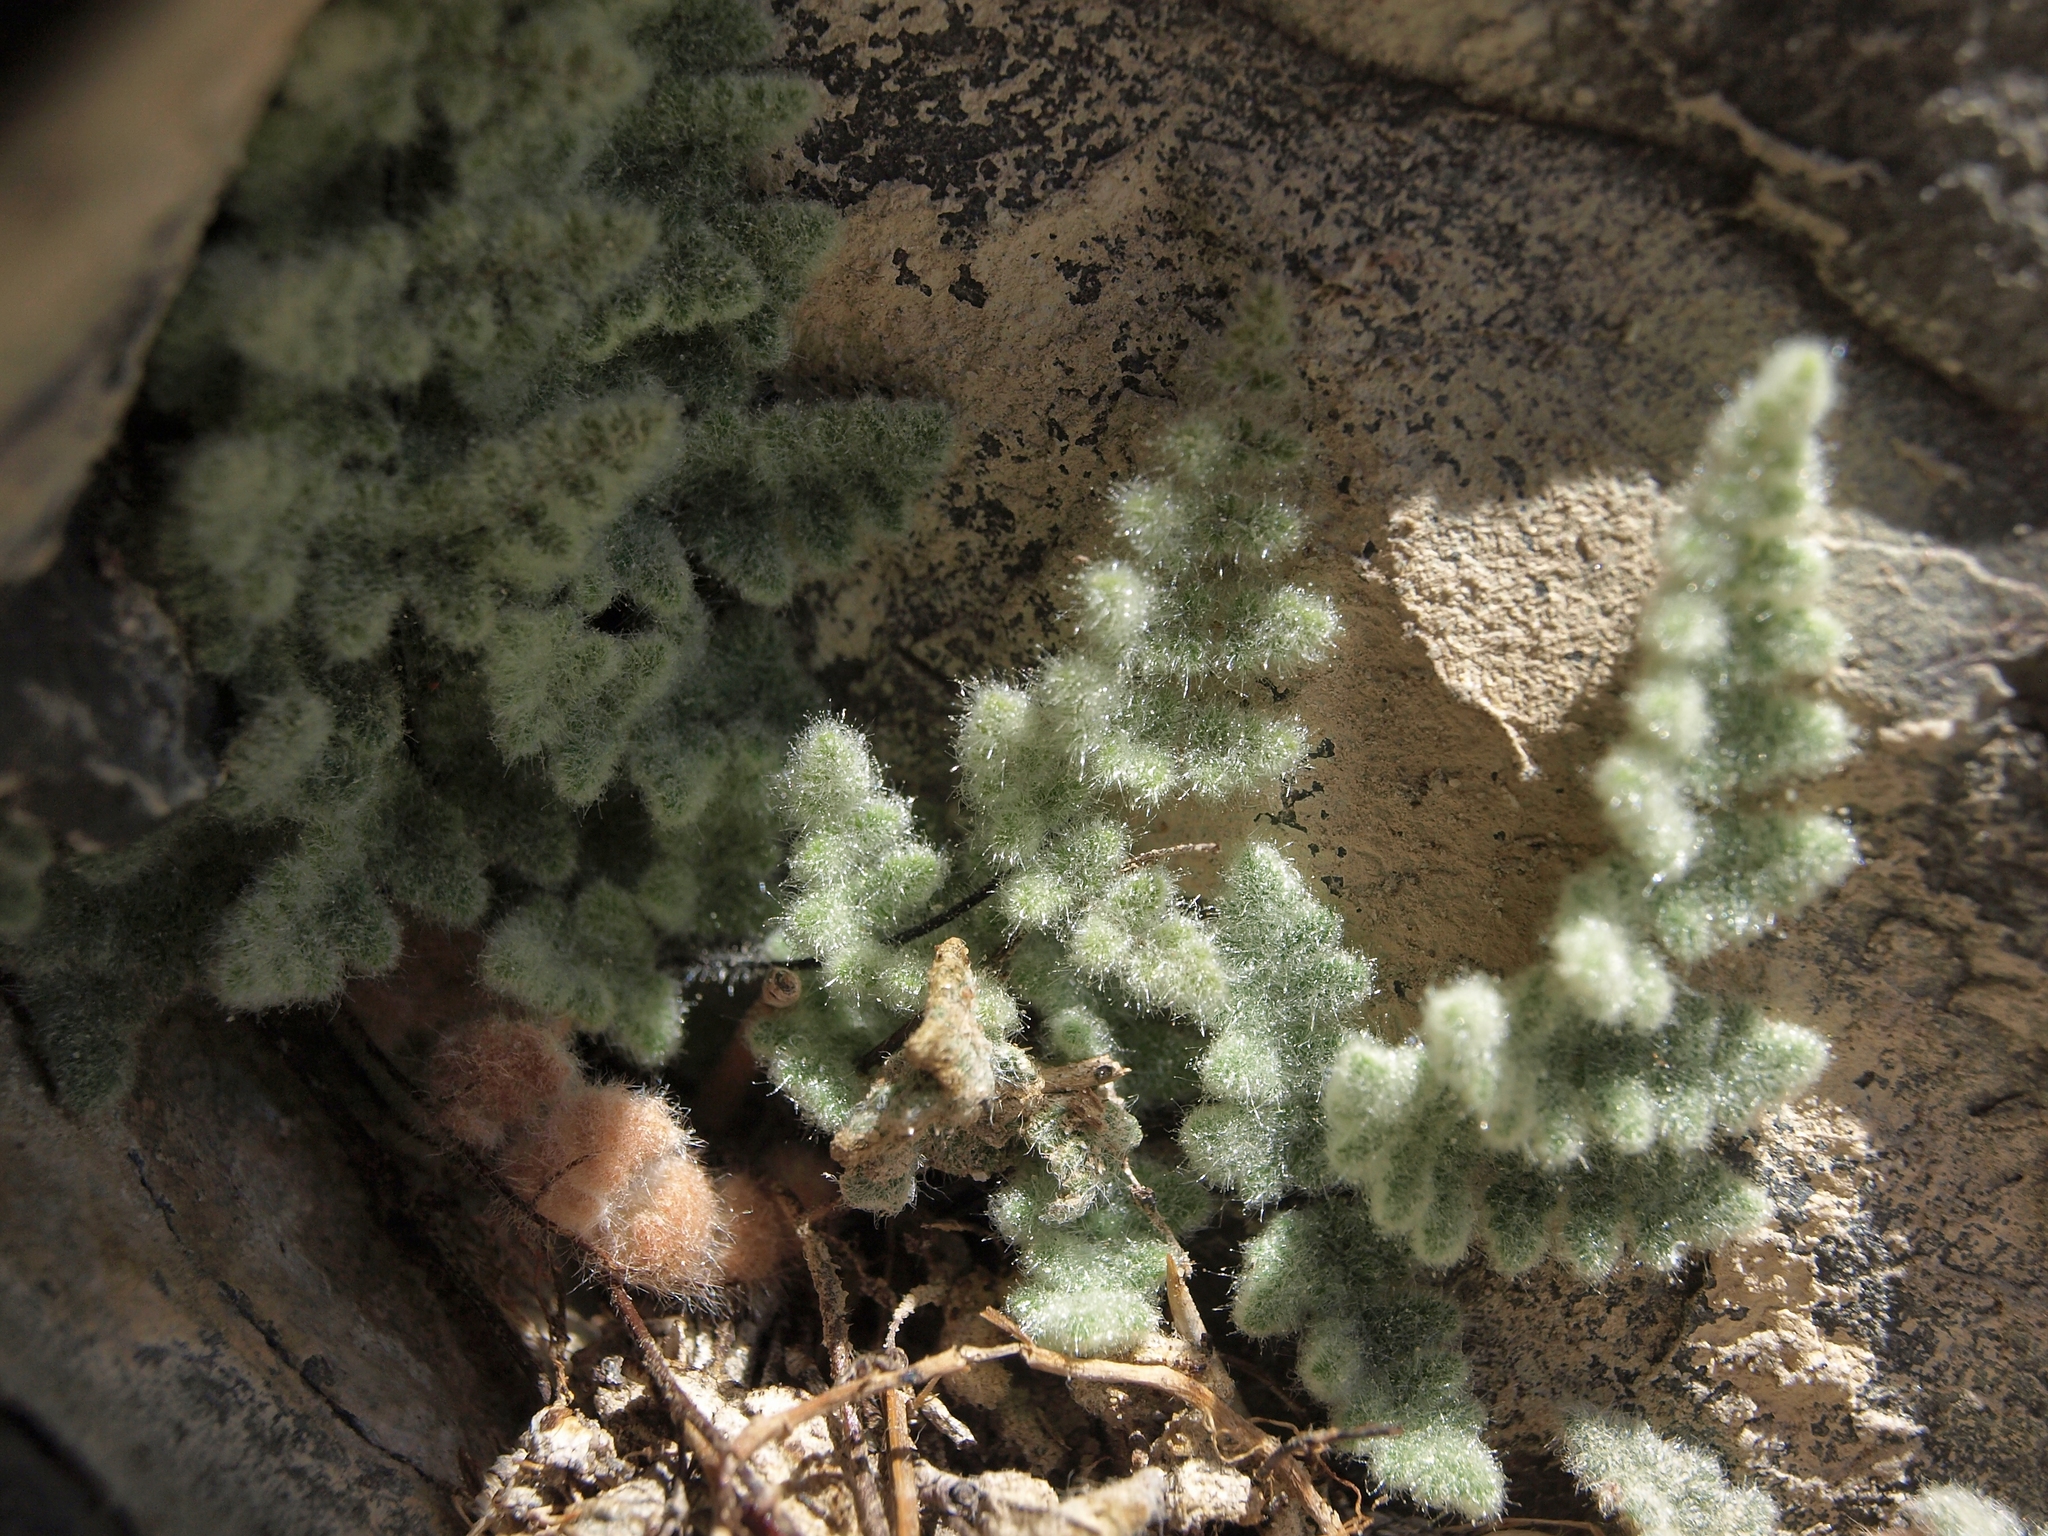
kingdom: Plantae
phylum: Tracheophyta
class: Polypodiopsida
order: Polypodiales
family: Pteridaceae
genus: Myriopteris
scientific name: Myriopteris parryi
